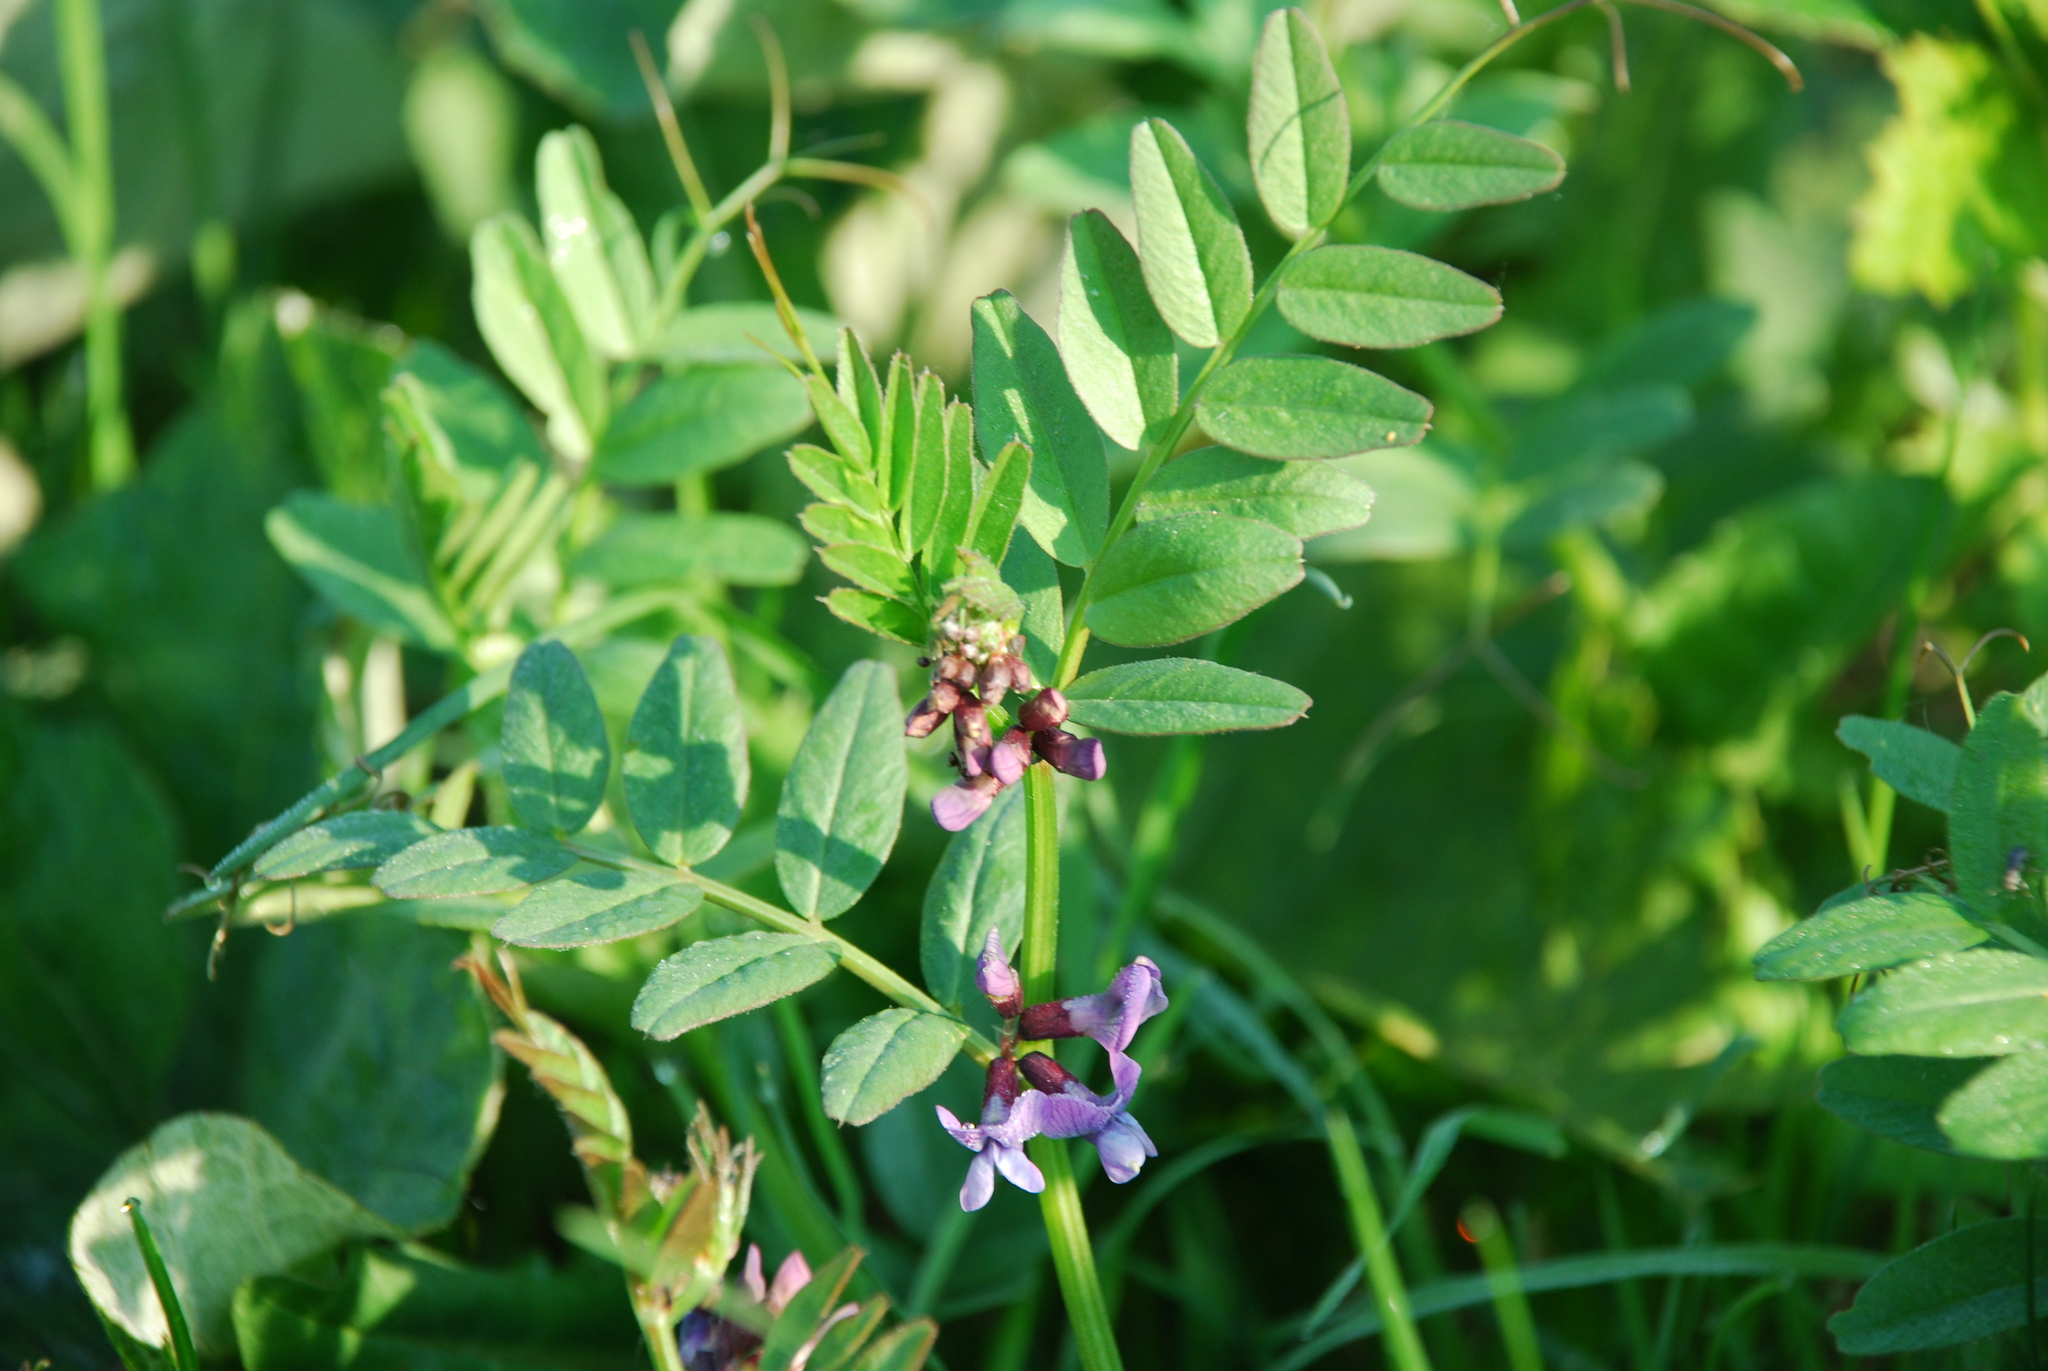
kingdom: Plantae
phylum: Tracheophyta
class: Magnoliopsida
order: Fabales
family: Fabaceae
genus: Vicia
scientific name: Vicia sepium
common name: Bush vetch
